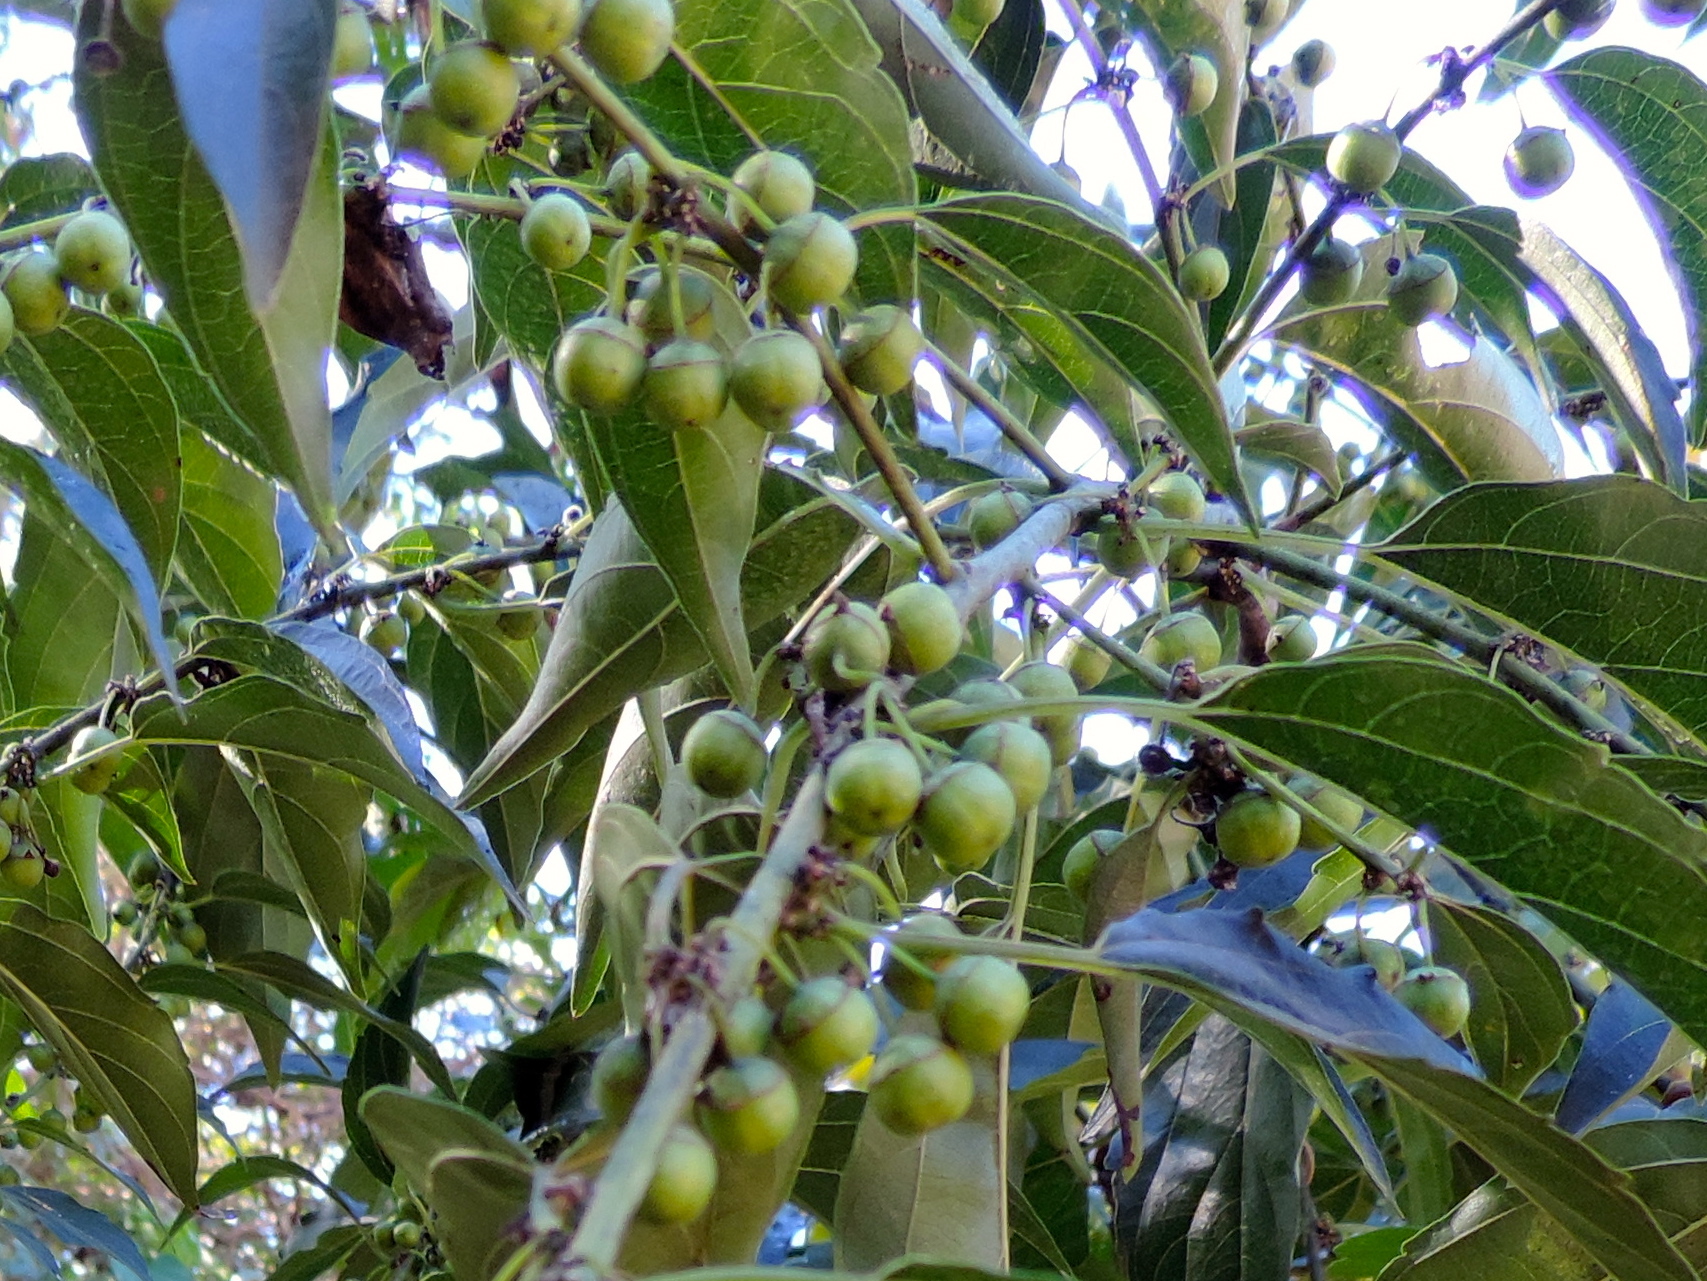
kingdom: Plantae
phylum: Tracheophyta
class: Magnoliopsida
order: Rosales
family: Rhamnaceae
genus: Colubrina
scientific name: Colubrina triflora
